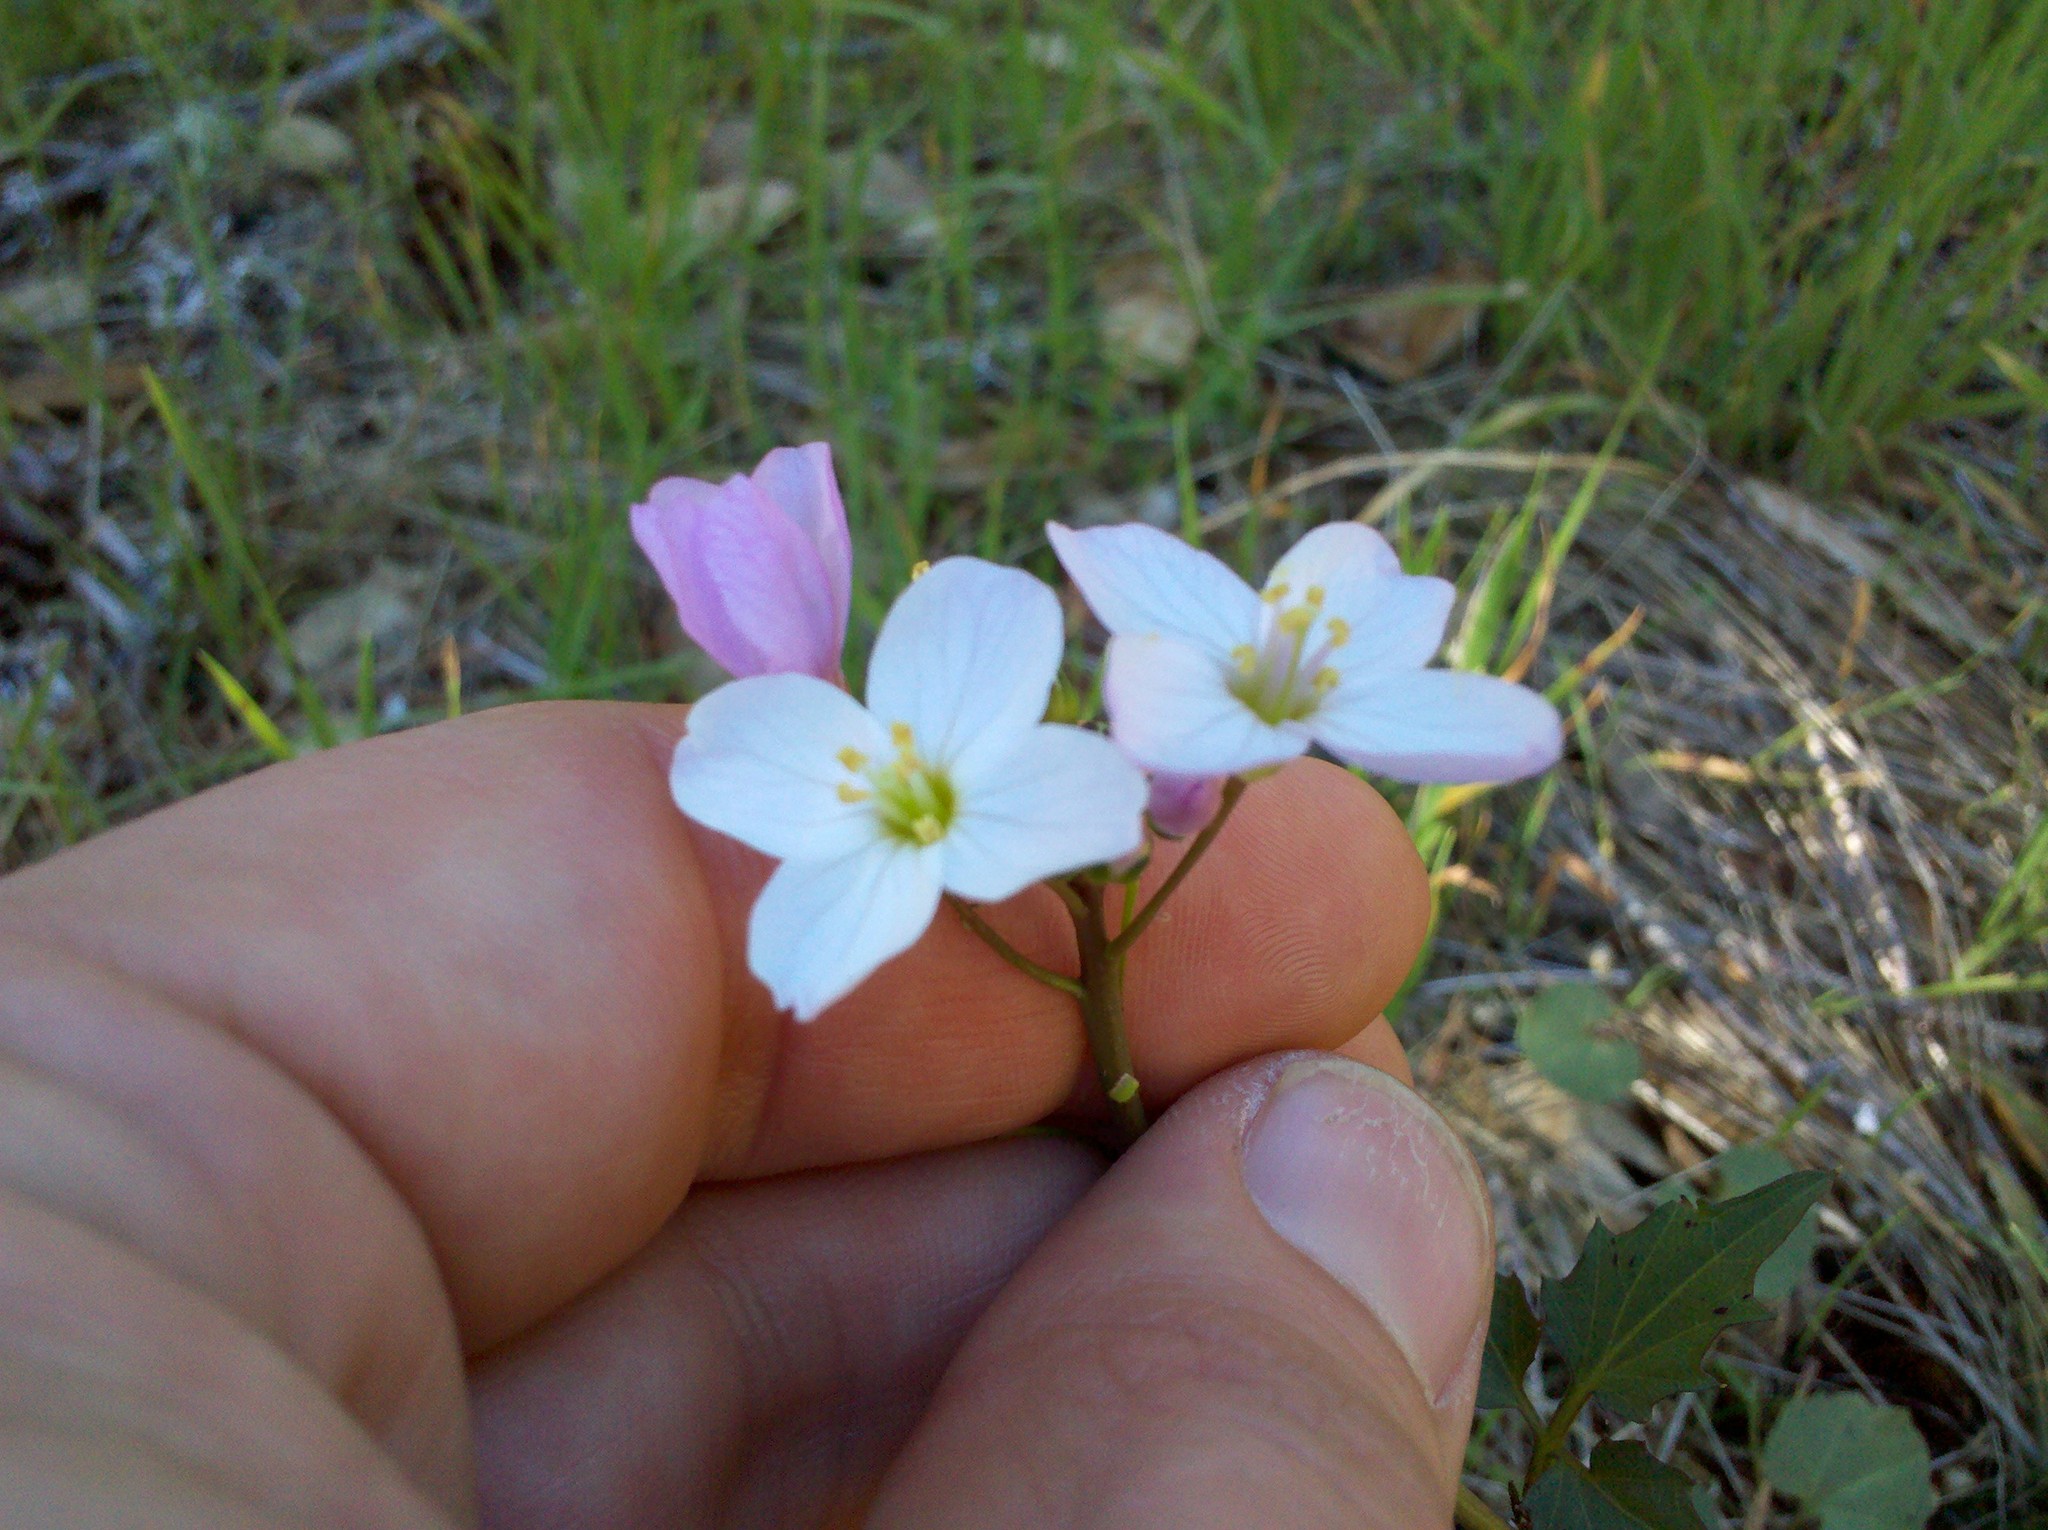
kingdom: Plantae
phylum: Tracheophyta
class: Magnoliopsida
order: Brassicales
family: Brassicaceae
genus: Cardamine
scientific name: Cardamine californica
